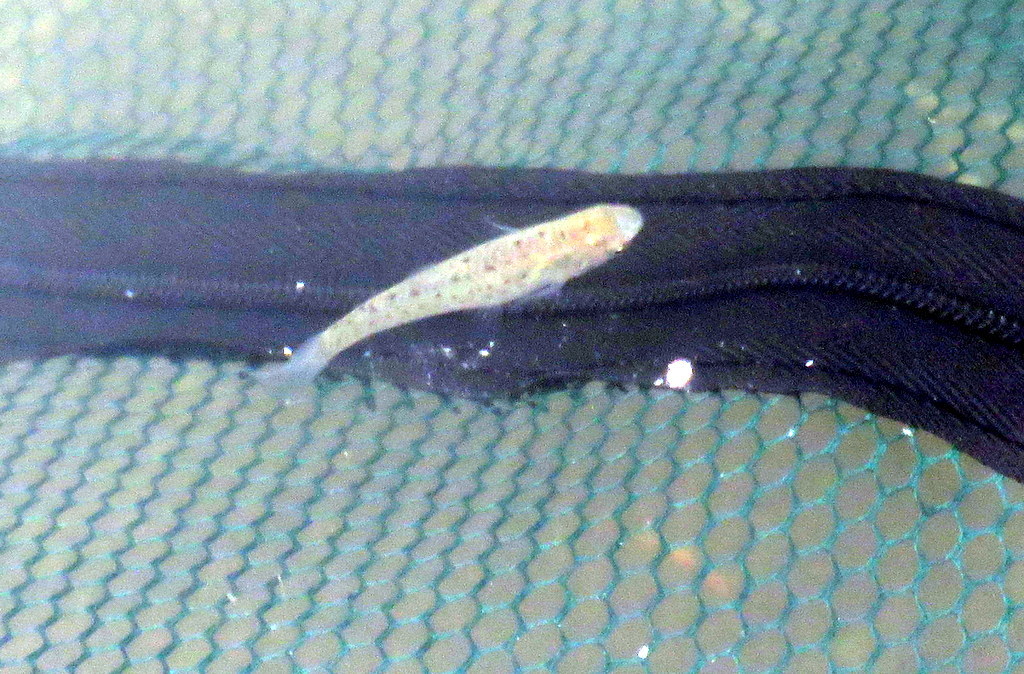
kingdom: Animalia
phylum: Chordata
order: Cyprinodontiformes
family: Anablepidae
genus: Jenynsia
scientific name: Jenynsia lineata
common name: Onesided livebearer
